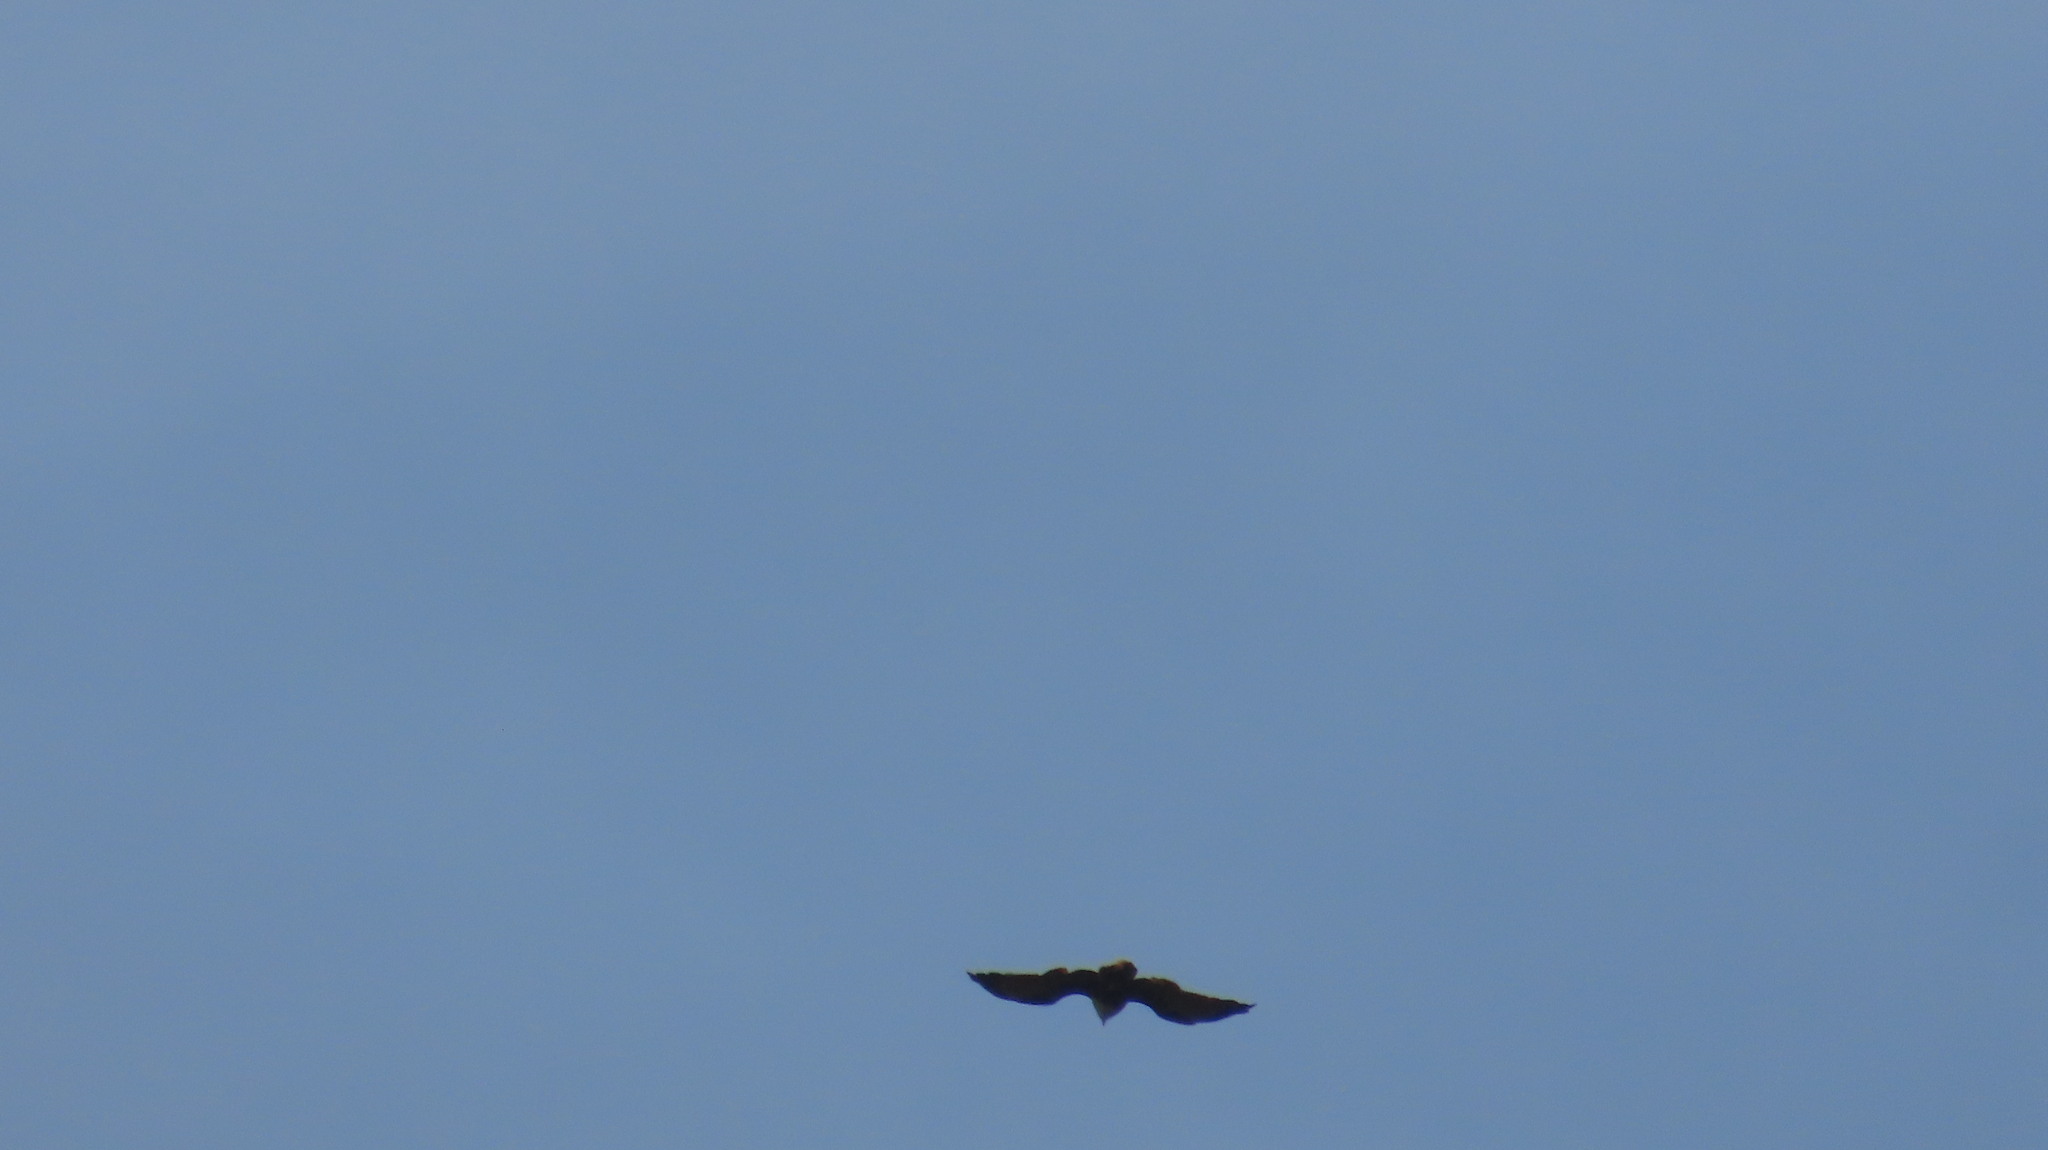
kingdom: Animalia
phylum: Chordata
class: Aves
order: Accipitriformes
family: Accipitridae
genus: Haliastur
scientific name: Haliastur indus
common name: Brahminy kite
